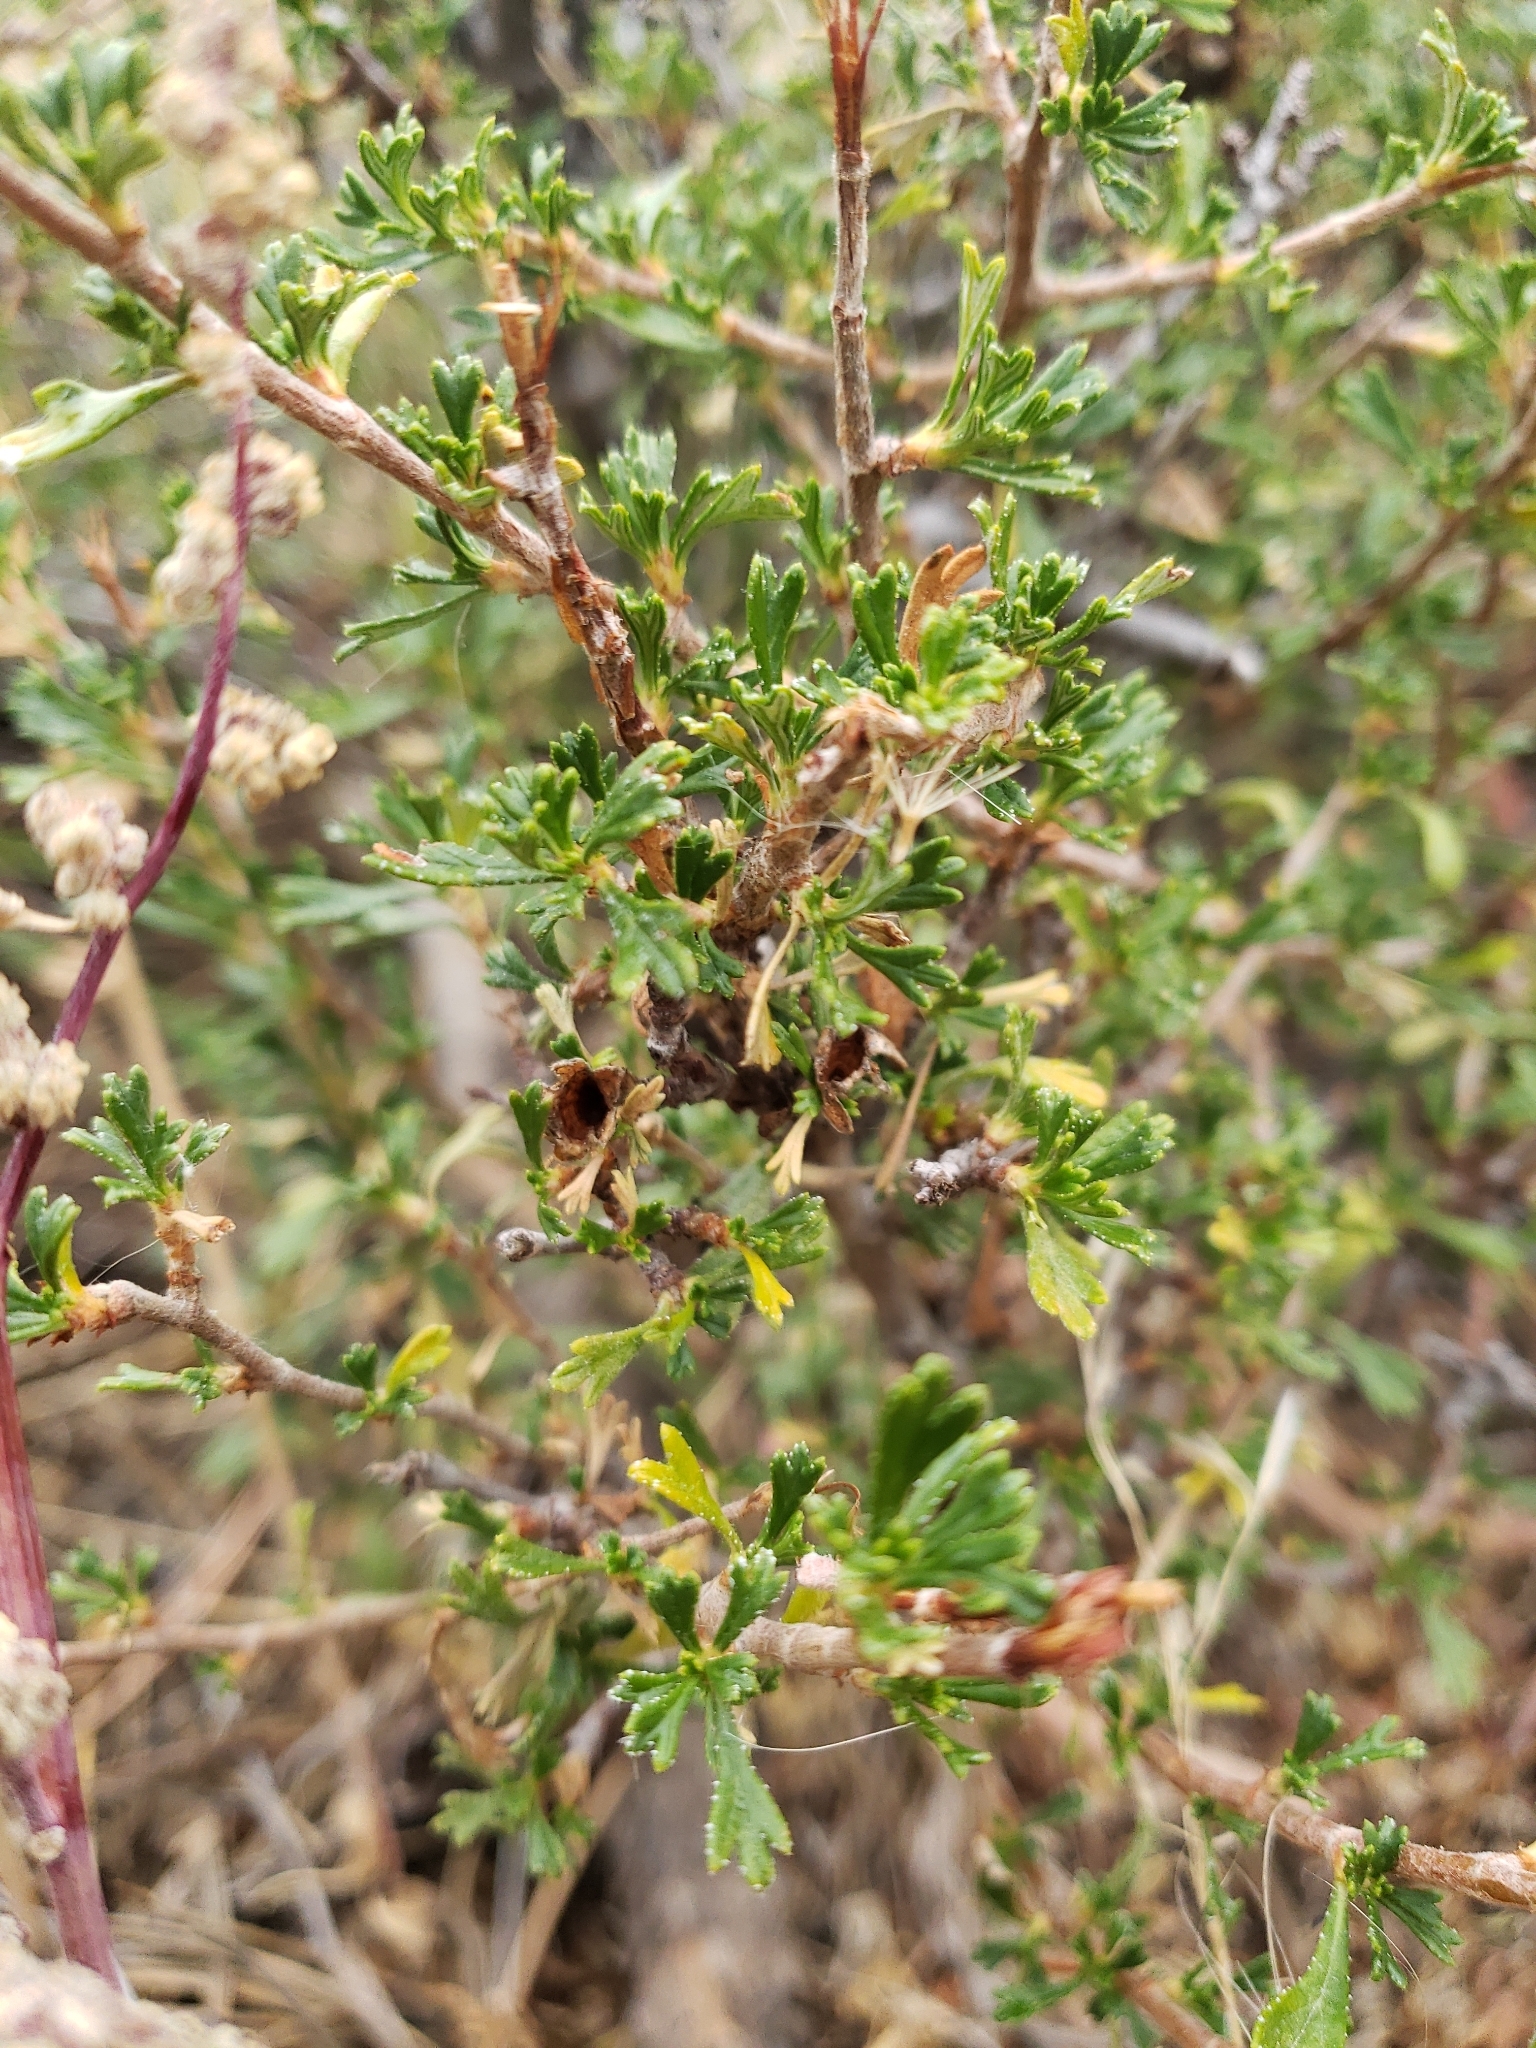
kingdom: Plantae
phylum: Tracheophyta
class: Magnoliopsida
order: Rosales
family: Rosaceae
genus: Purshia
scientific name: Purshia tridentata
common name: Antelope bitterbrush
